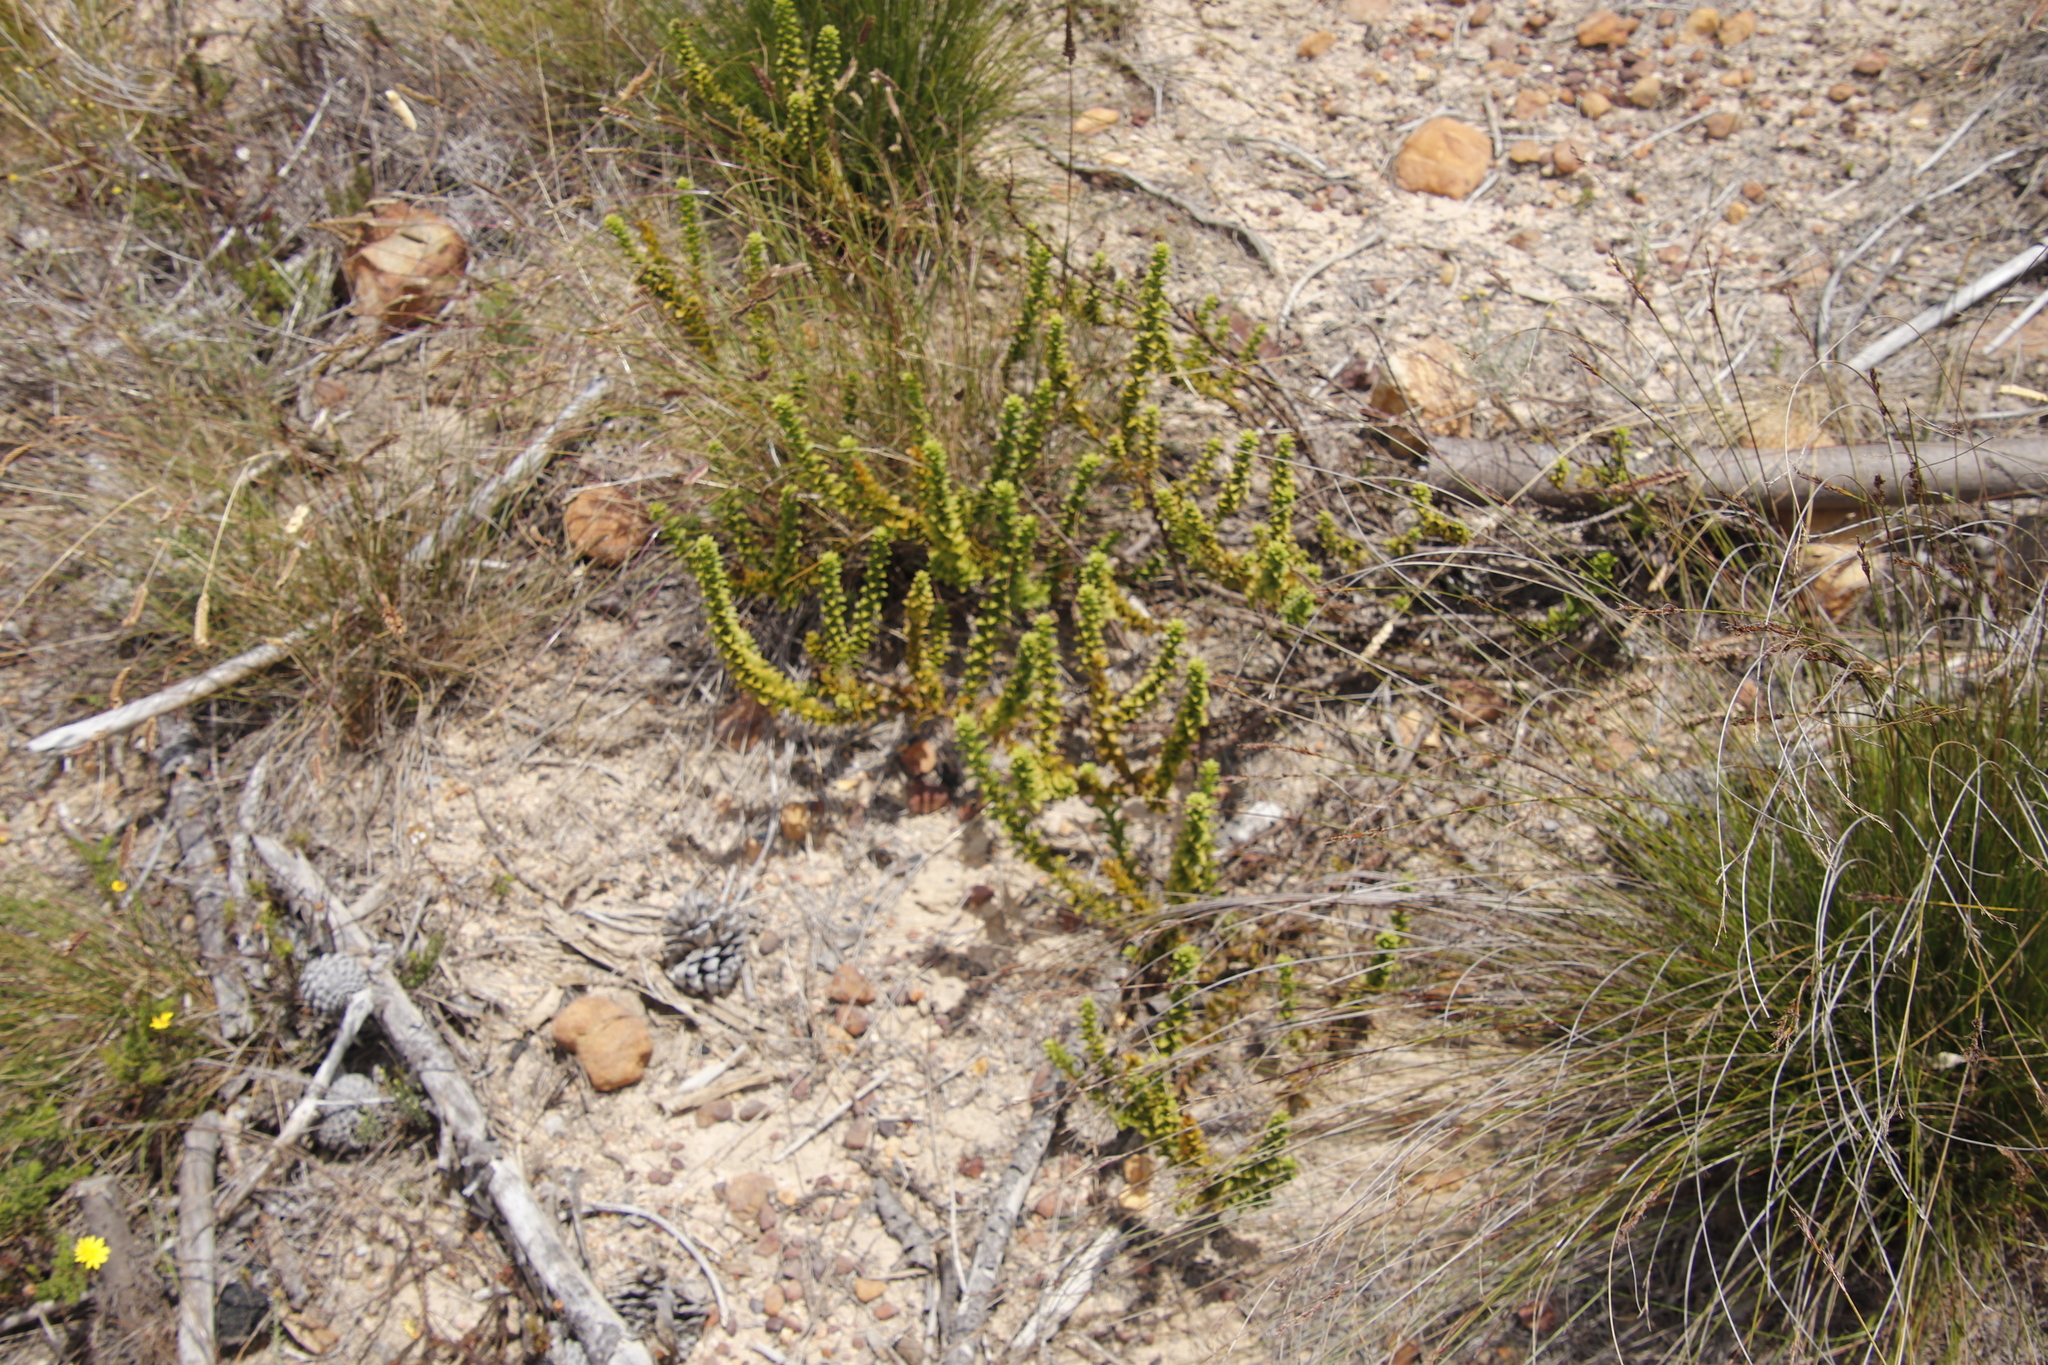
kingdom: Plantae
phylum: Tracheophyta
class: Magnoliopsida
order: Lamiales
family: Scrophulariaceae
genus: Oftia
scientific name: Oftia africana
